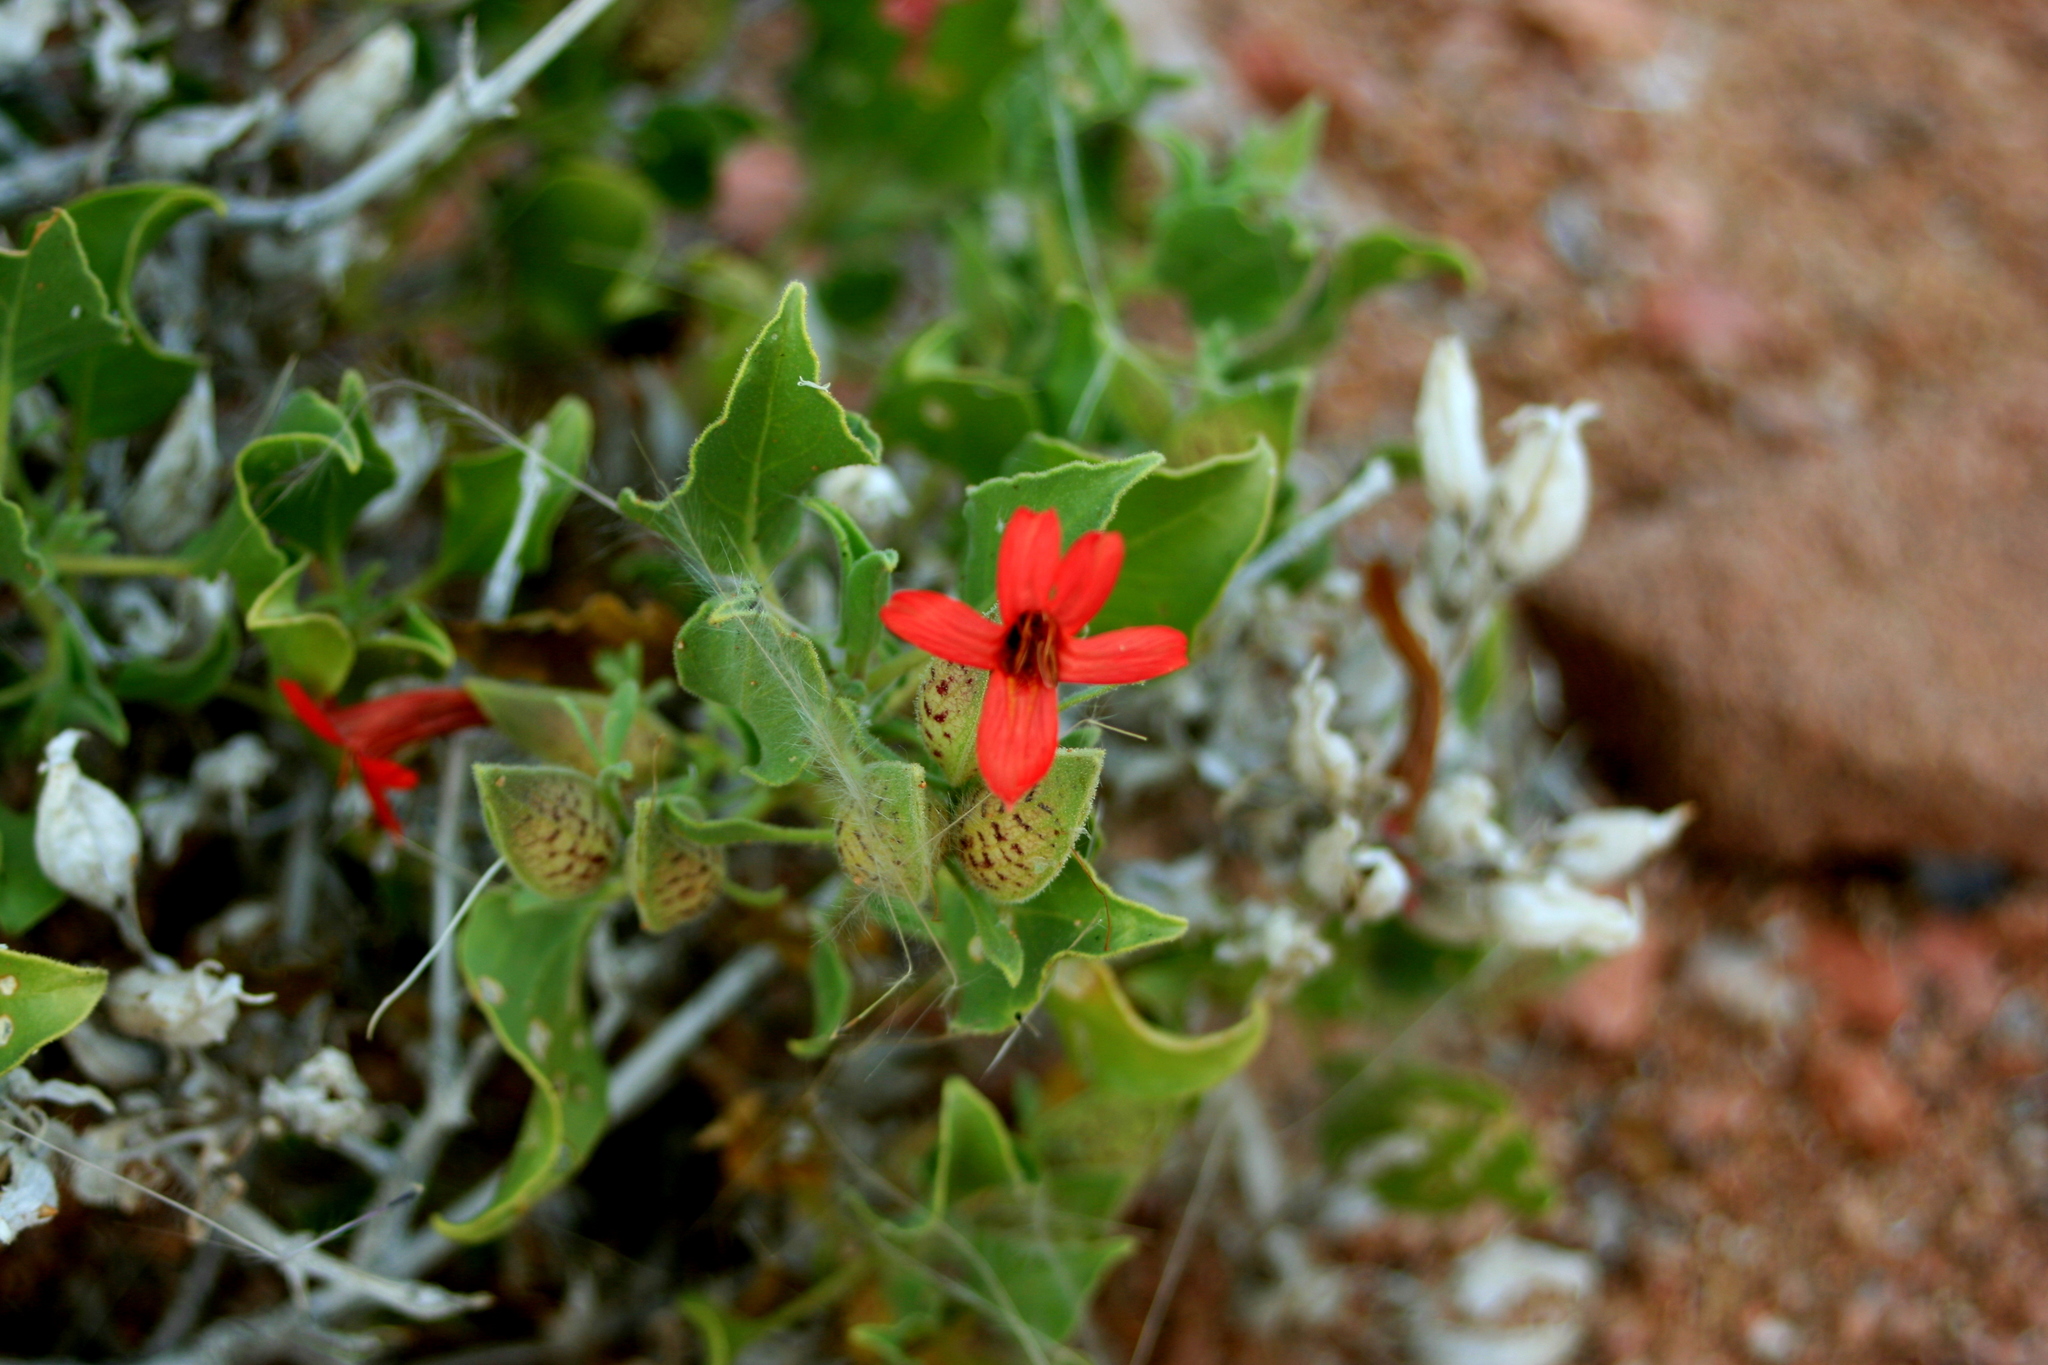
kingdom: Plantae
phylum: Tracheophyta
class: Magnoliopsida
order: Lamiales
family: Acanthaceae
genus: Petalidium
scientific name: Petalidium coccineum
